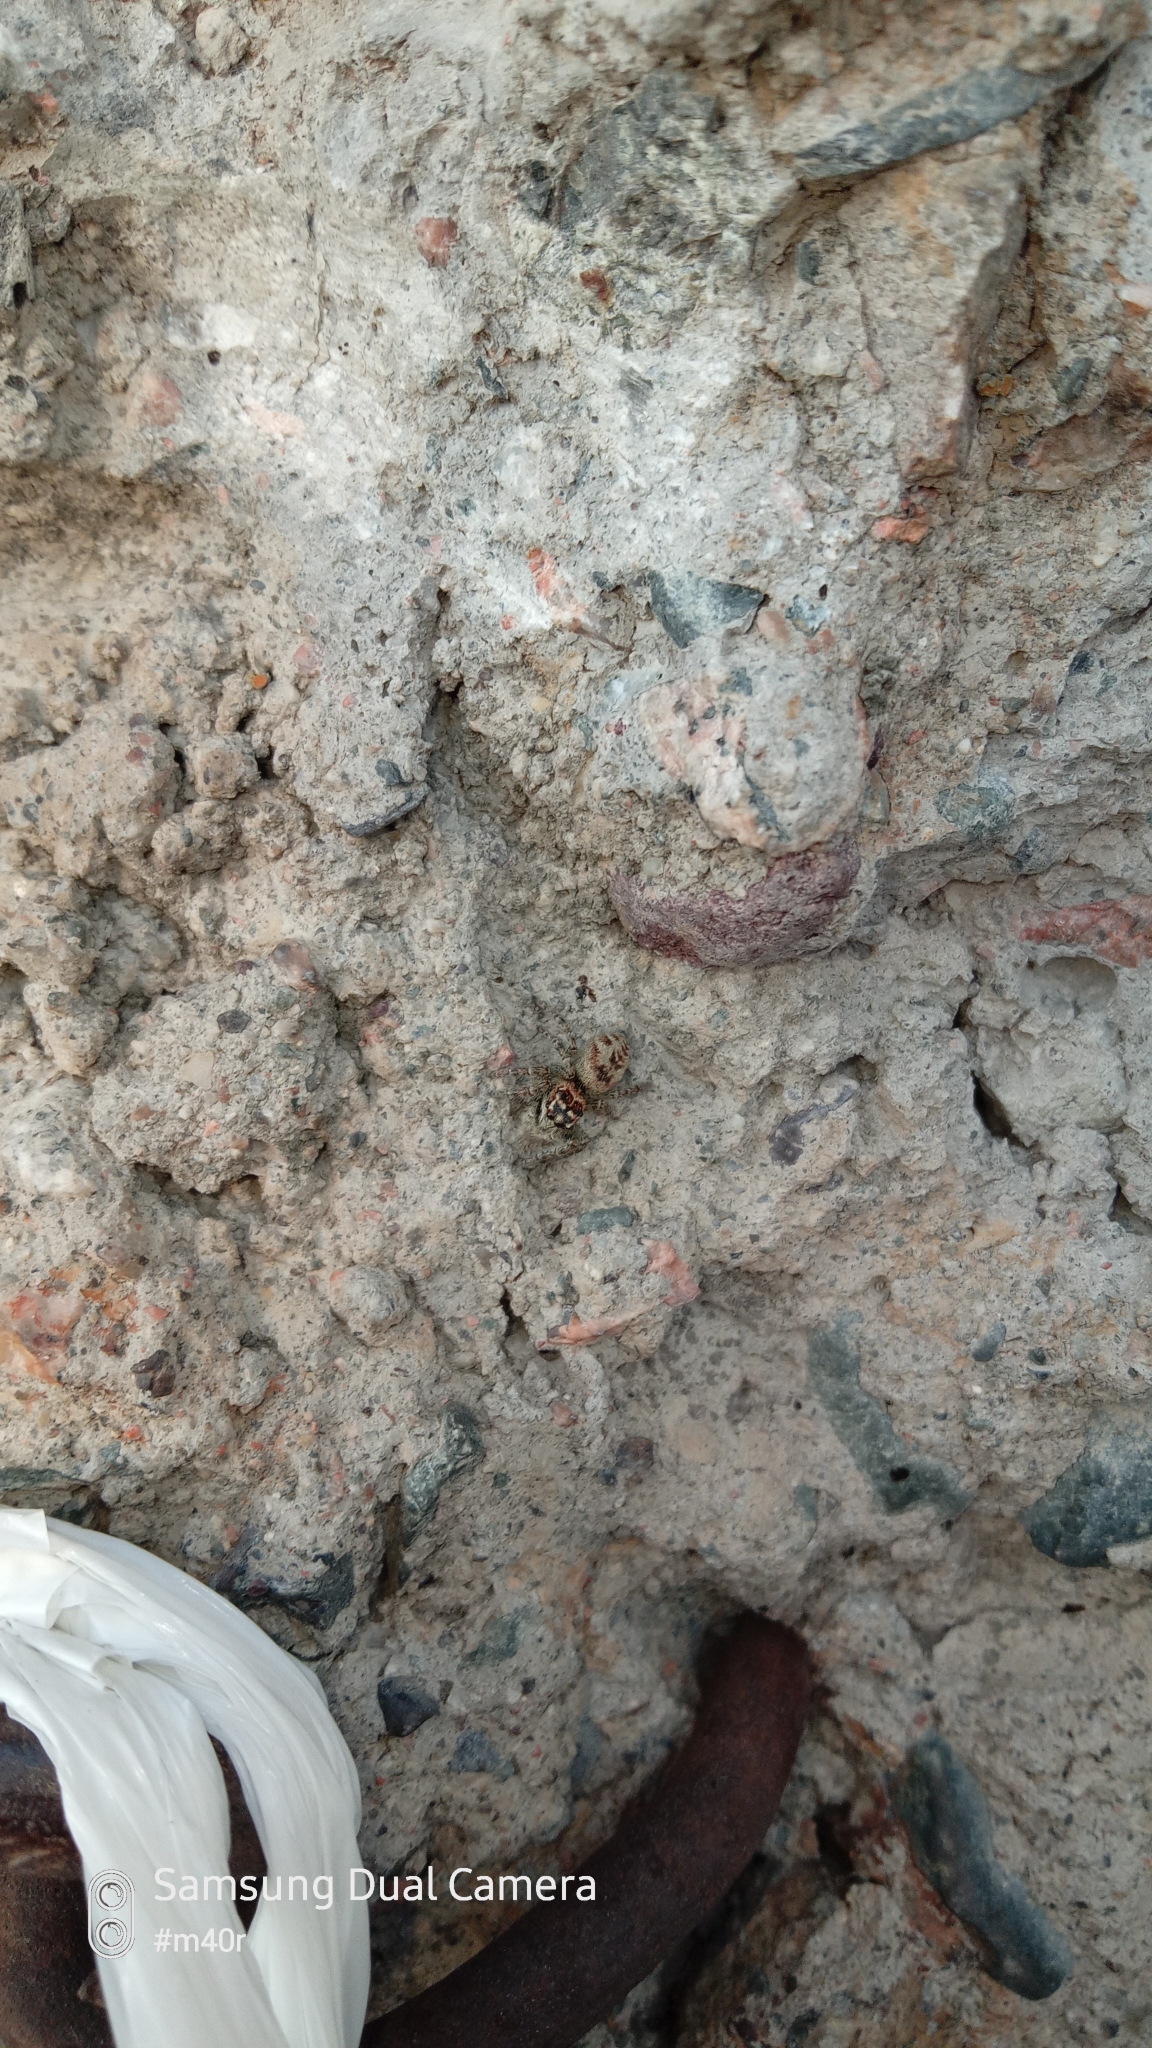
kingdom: Animalia
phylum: Arthropoda
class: Arachnida
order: Araneae
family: Salticidae
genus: Philaeus
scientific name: Philaeus chrysops
